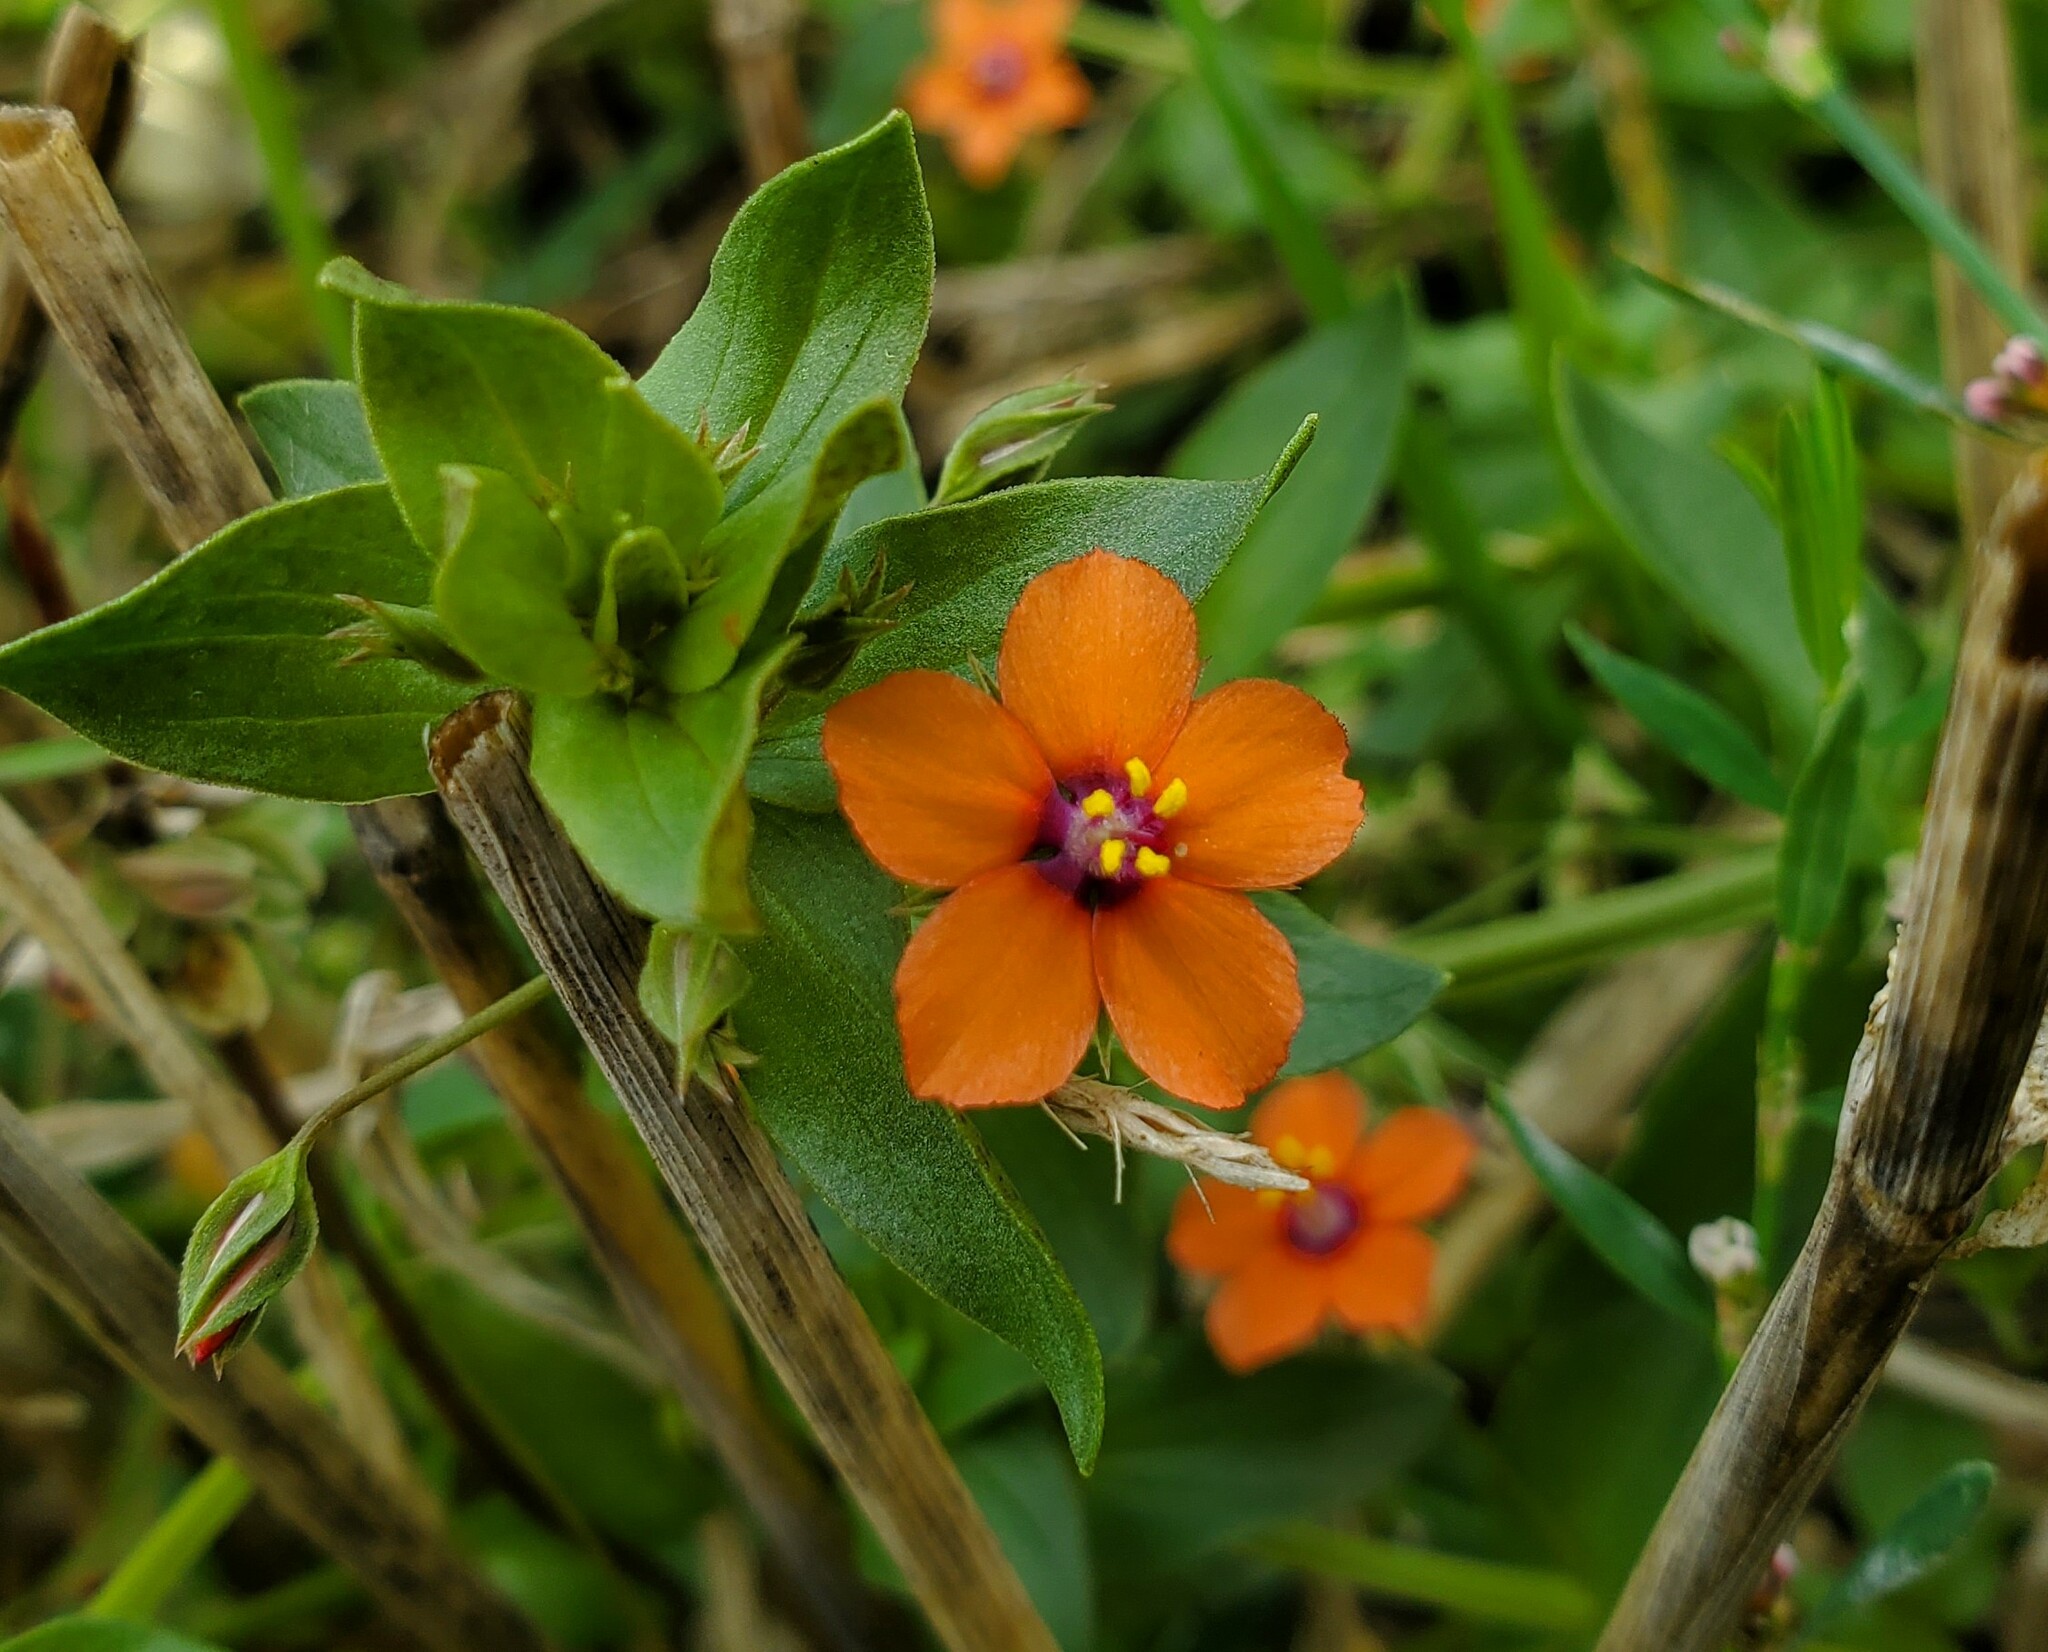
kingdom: Plantae
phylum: Tracheophyta
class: Magnoliopsida
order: Ericales
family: Primulaceae
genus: Lysimachia
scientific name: Lysimachia arvensis
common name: Scarlet pimpernel
